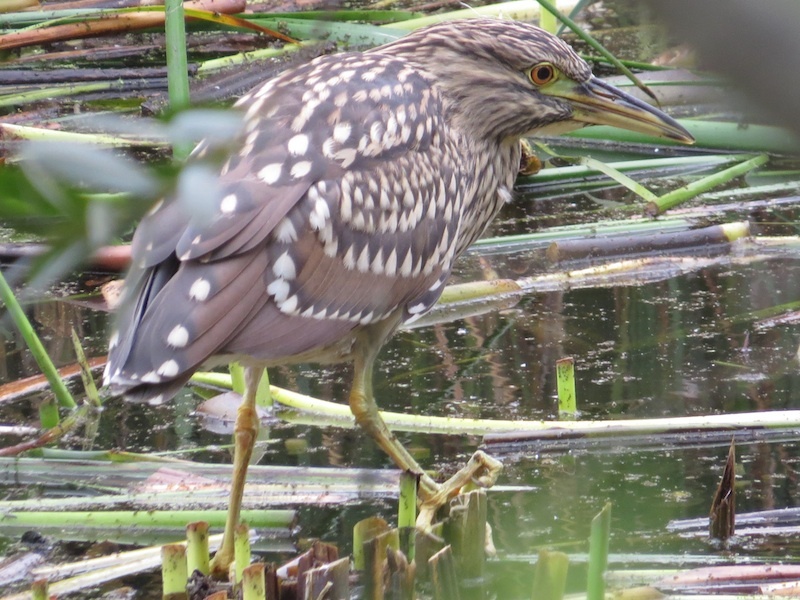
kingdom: Animalia
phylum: Chordata
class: Aves
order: Pelecaniformes
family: Ardeidae
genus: Nycticorax
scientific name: Nycticorax nycticorax
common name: Black-crowned night heron
